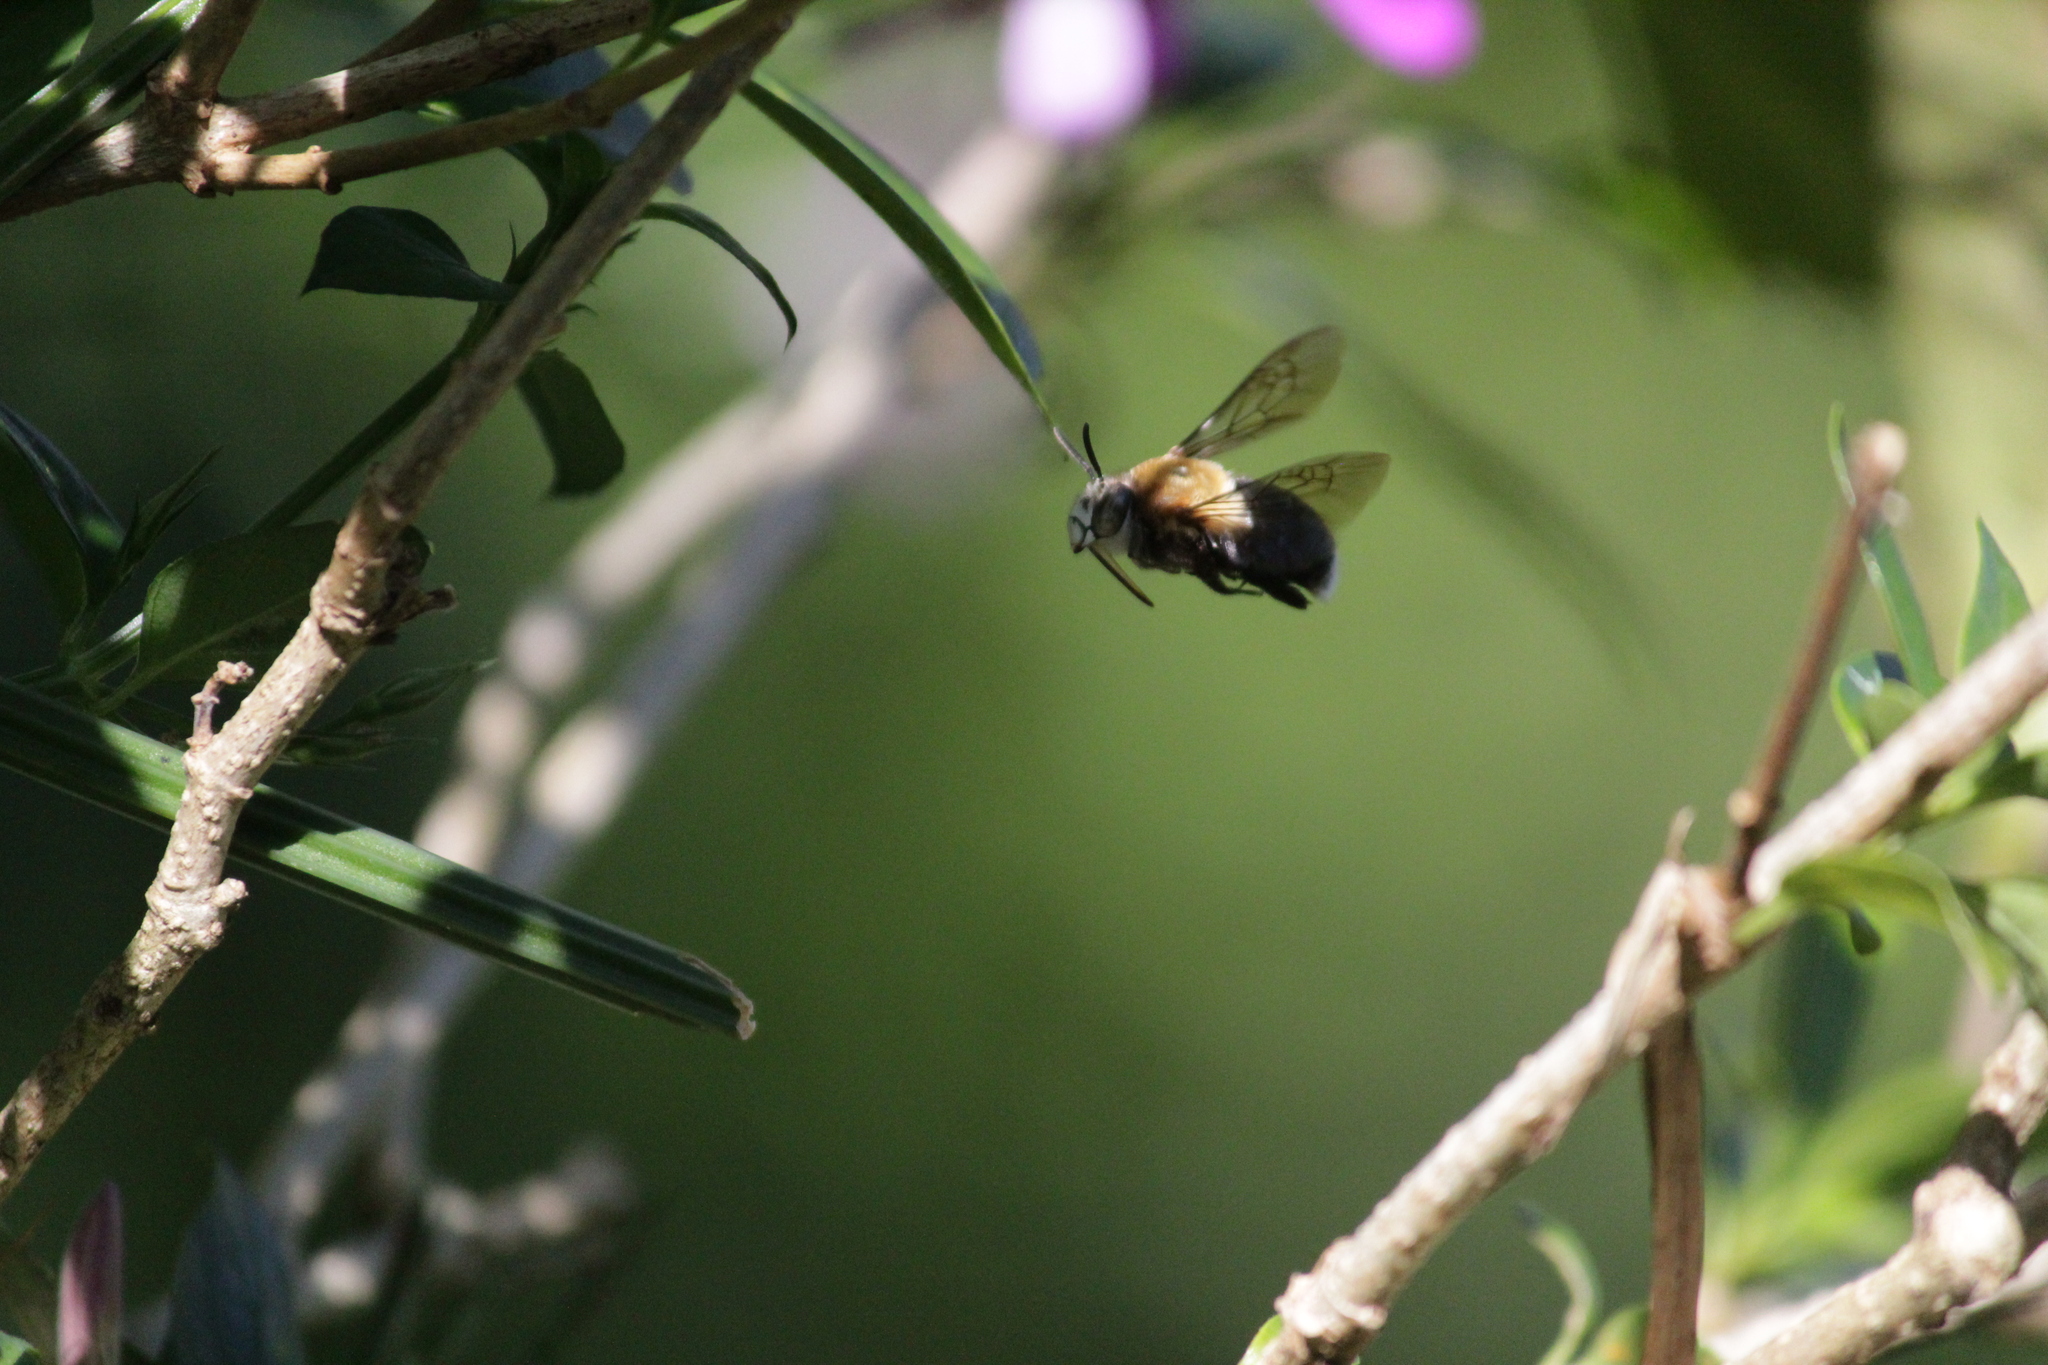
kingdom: Animalia
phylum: Arthropoda
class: Insecta
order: Hymenoptera
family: Apidae
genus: Amegilla
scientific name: Amegilla acraensis
